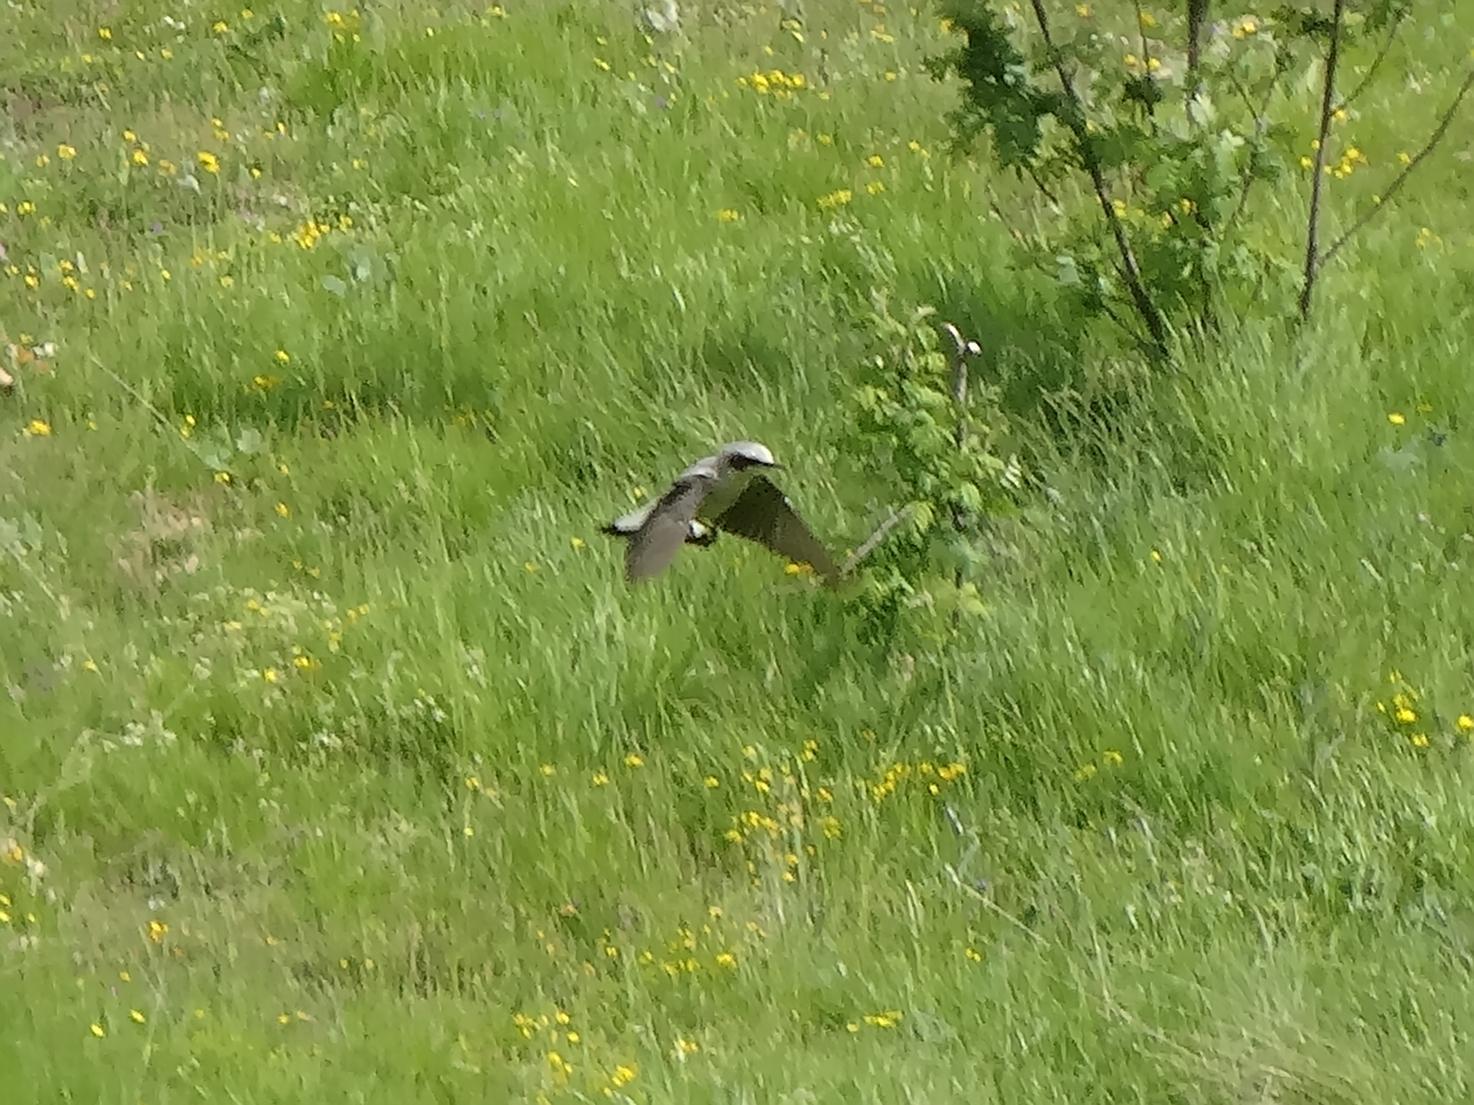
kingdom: Animalia
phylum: Chordata
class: Aves
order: Passeriformes
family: Muscicapidae
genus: Oenanthe
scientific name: Oenanthe oenanthe
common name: Northern wheatear
